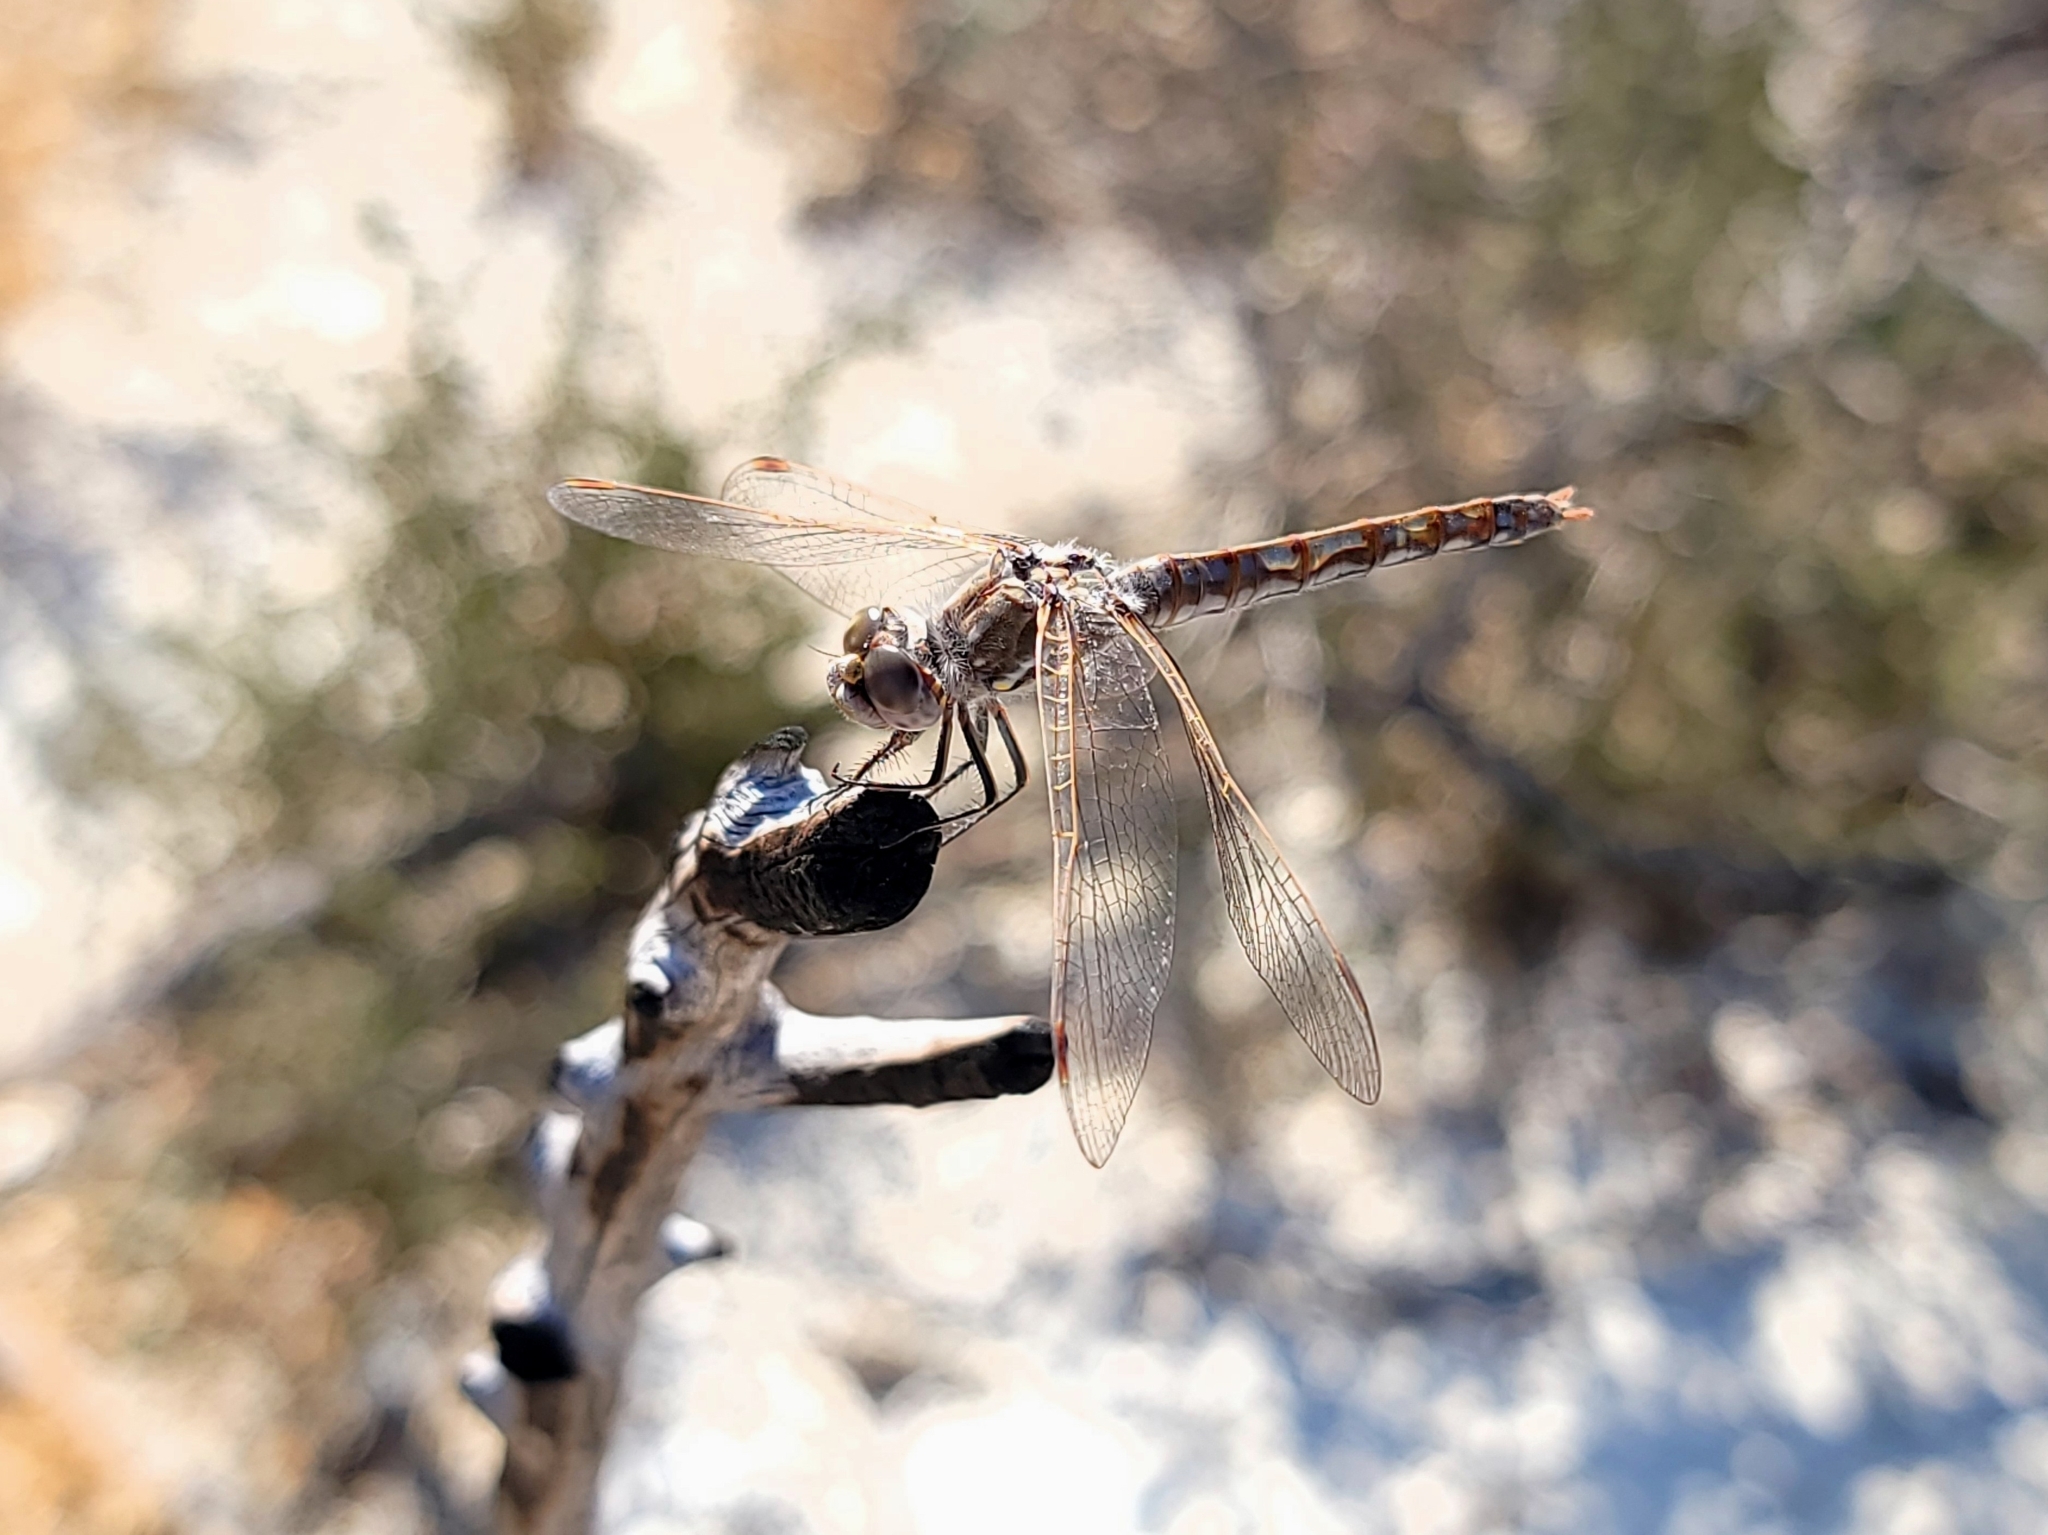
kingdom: Animalia
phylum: Arthropoda
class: Insecta
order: Odonata
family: Libellulidae
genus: Sympetrum
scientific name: Sympetrum corruptum
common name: Variegated meadowhawk
